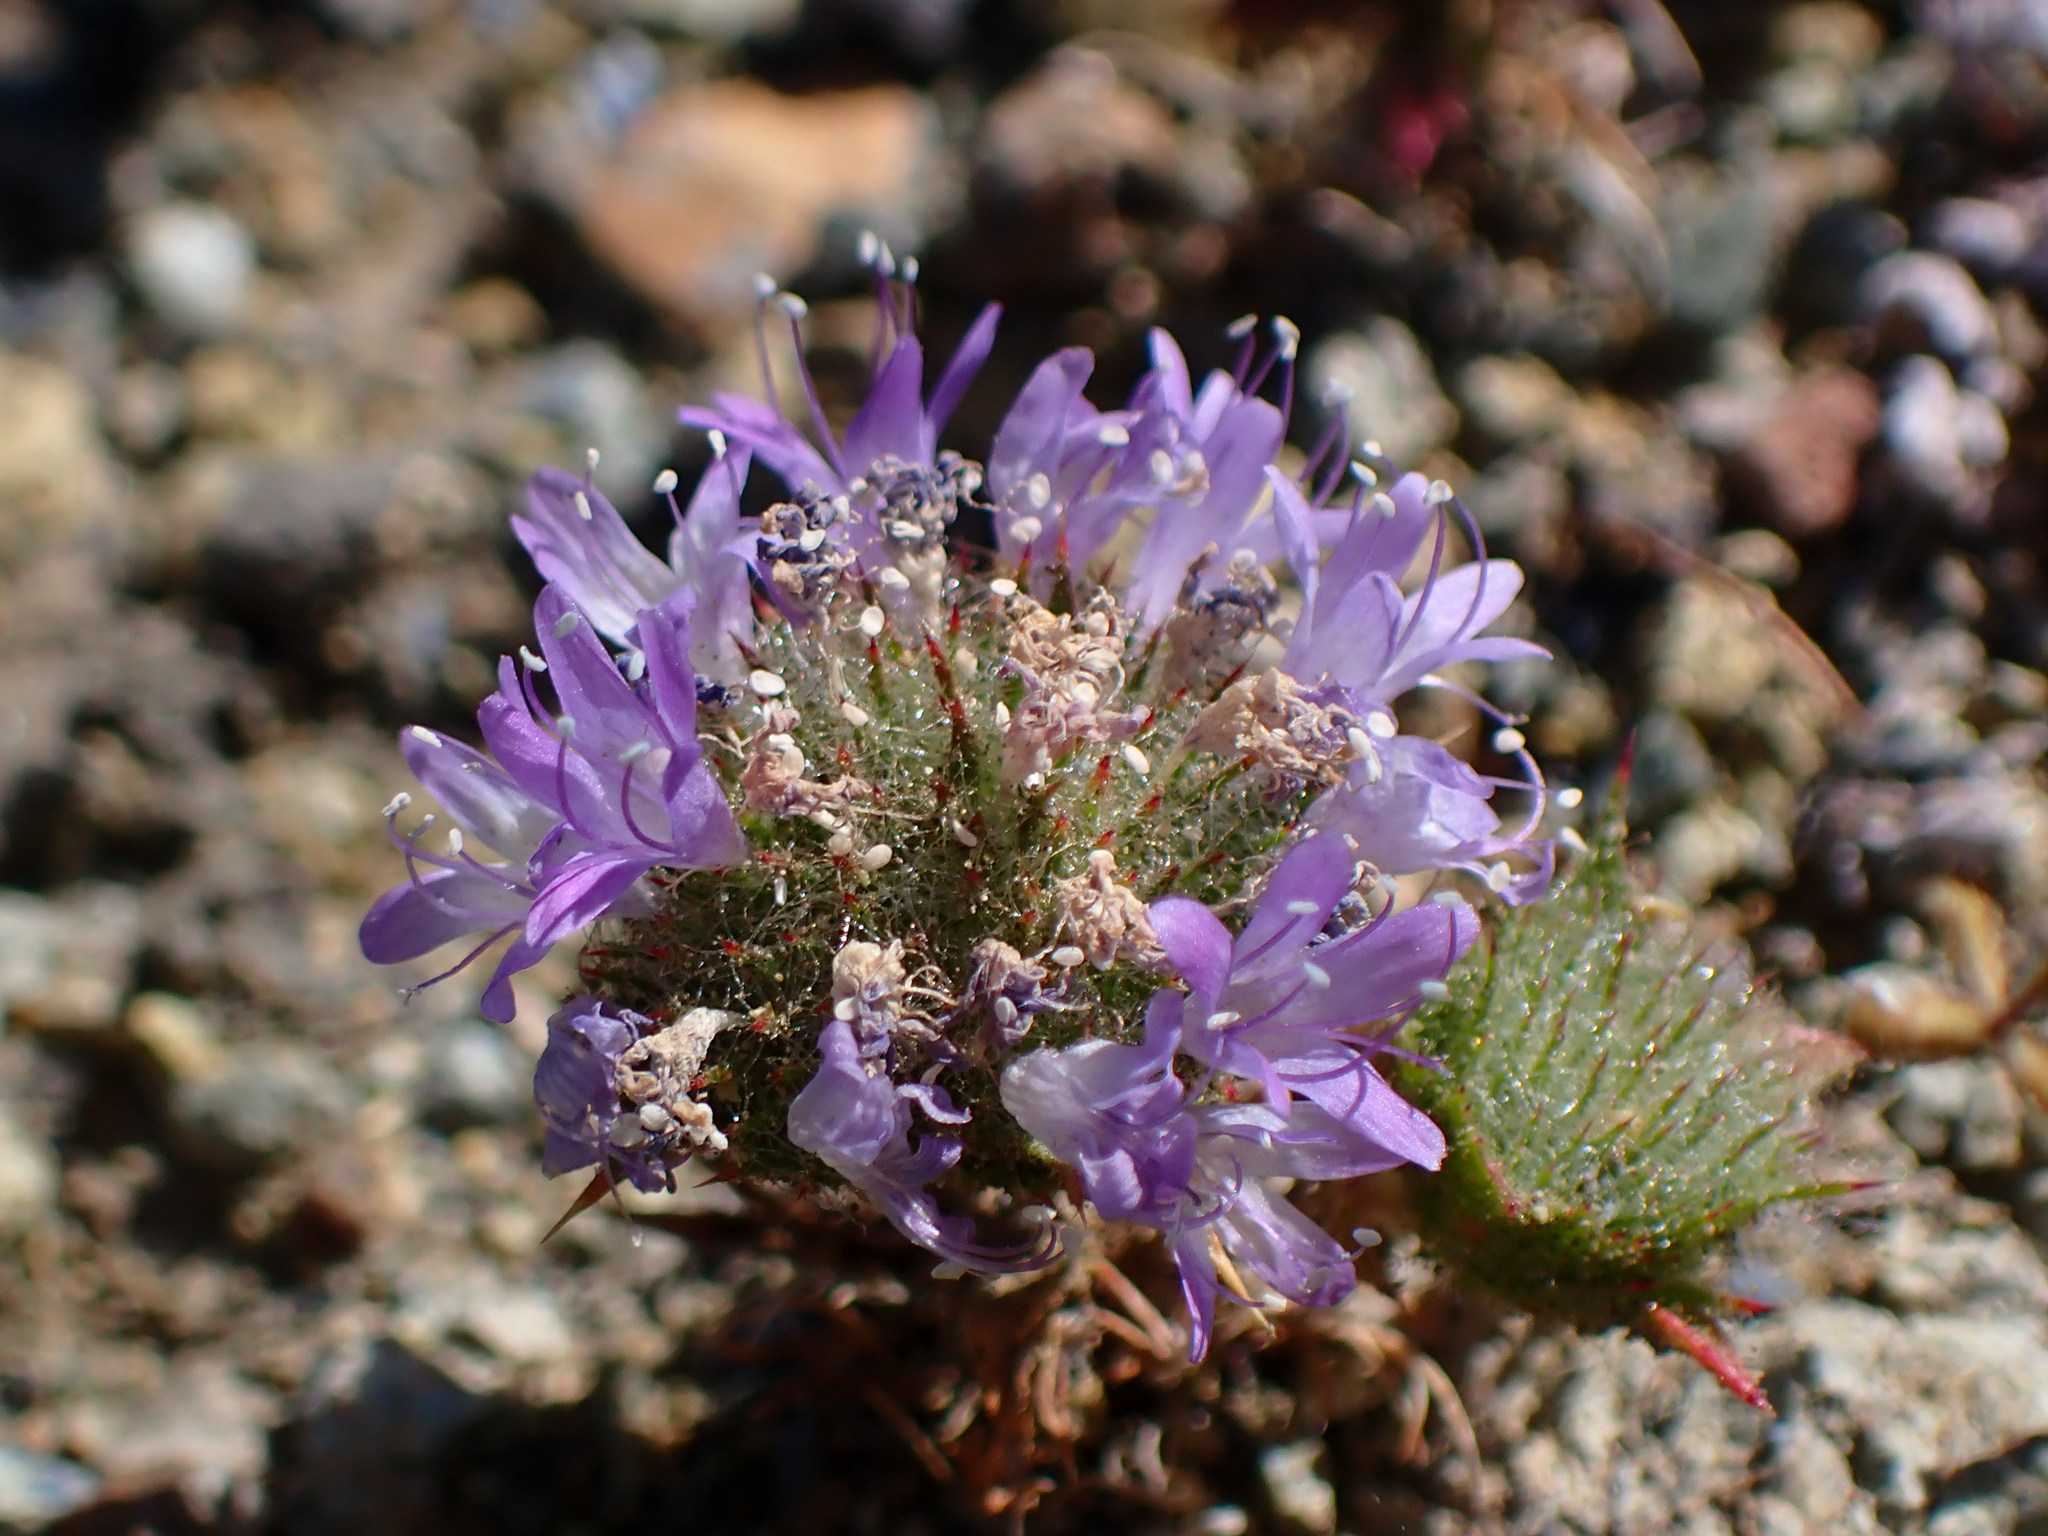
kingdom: Plantae
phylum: Tracheophyta
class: Magnoliopsida
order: Ericales
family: Polemoniaceae
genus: Navarretia
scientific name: Navarretia heterodoxa
